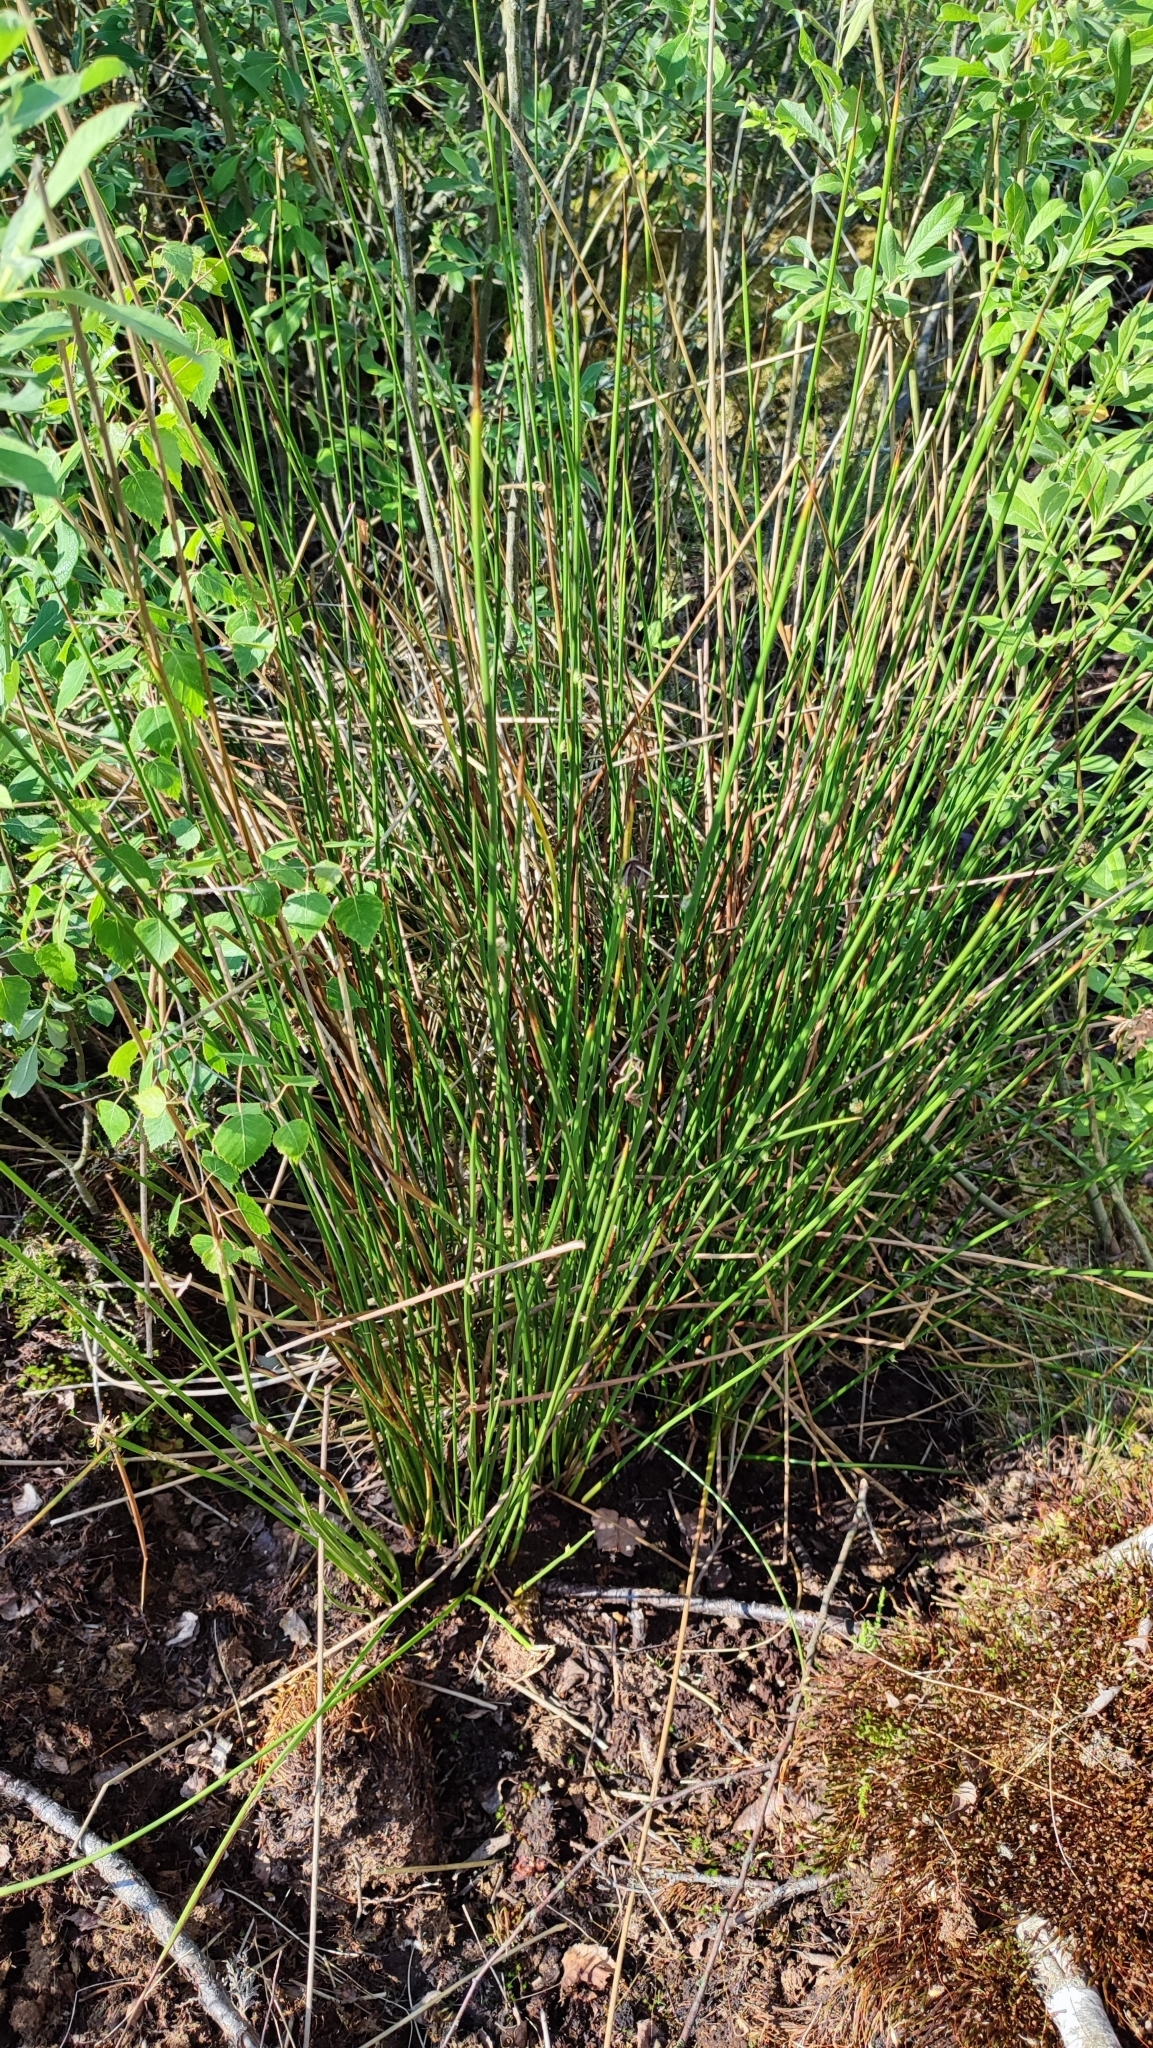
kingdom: Plantae
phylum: Tracheophyta
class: Liliopsida
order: Poales
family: Juncaceae
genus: Juncus
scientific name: Juncus conglomeratus
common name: Compact rush
